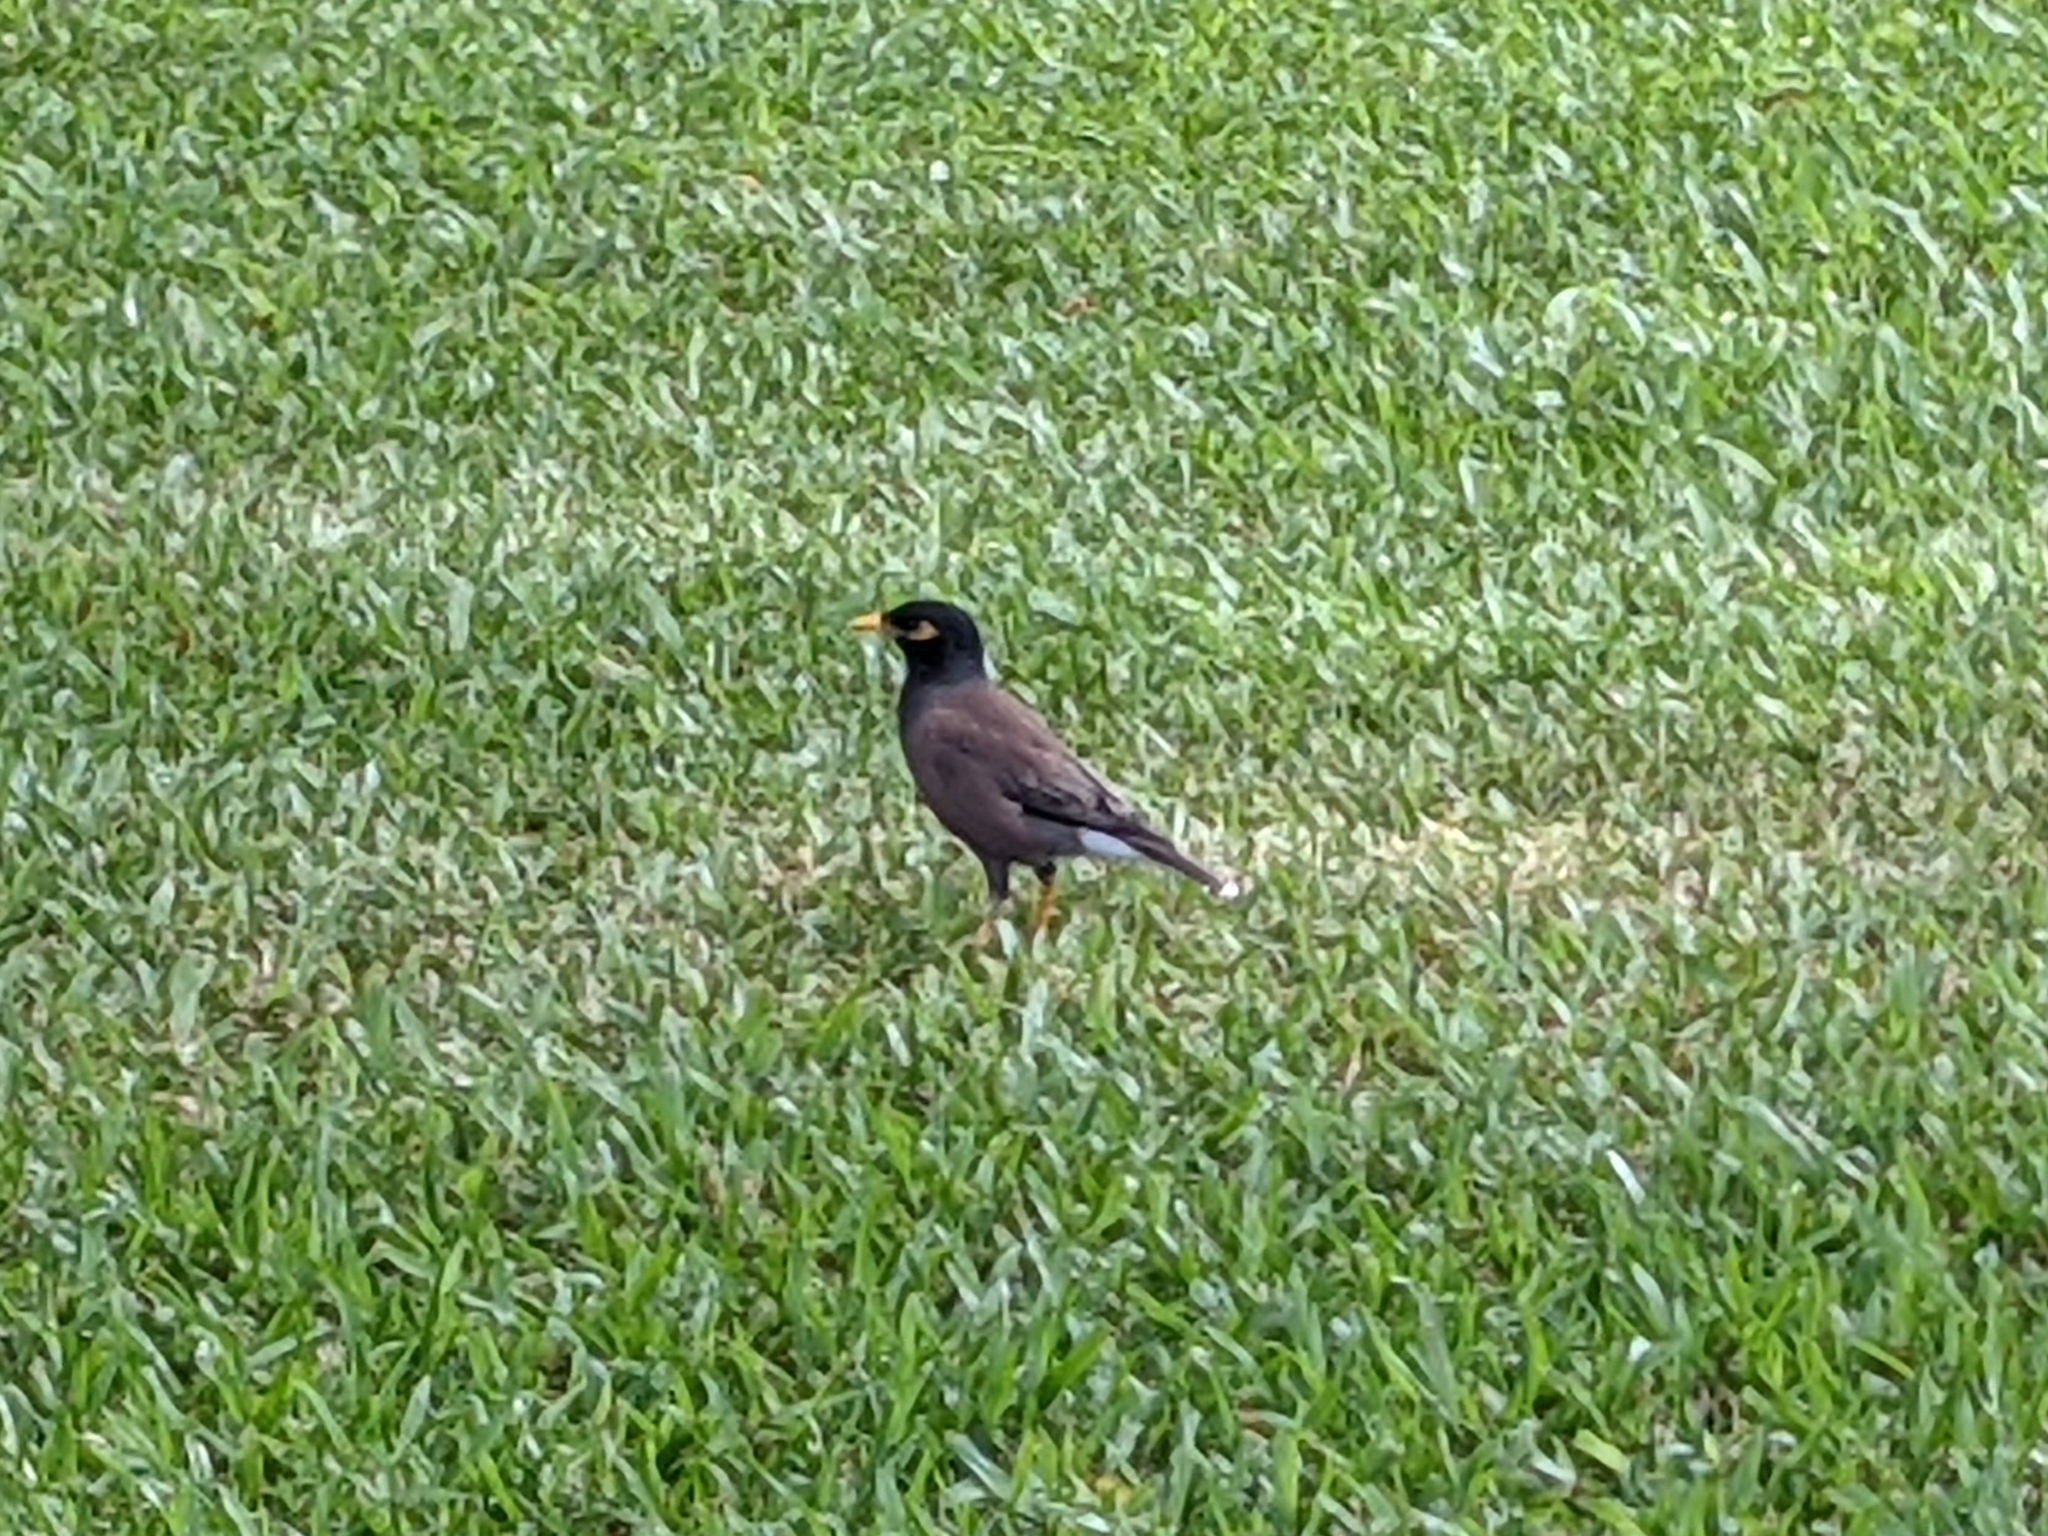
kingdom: Animalia
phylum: Chordata
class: Aves
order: Passeriformes
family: Sturnidae
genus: Acridotheres
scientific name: Acridotheres tristis
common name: Common myna
